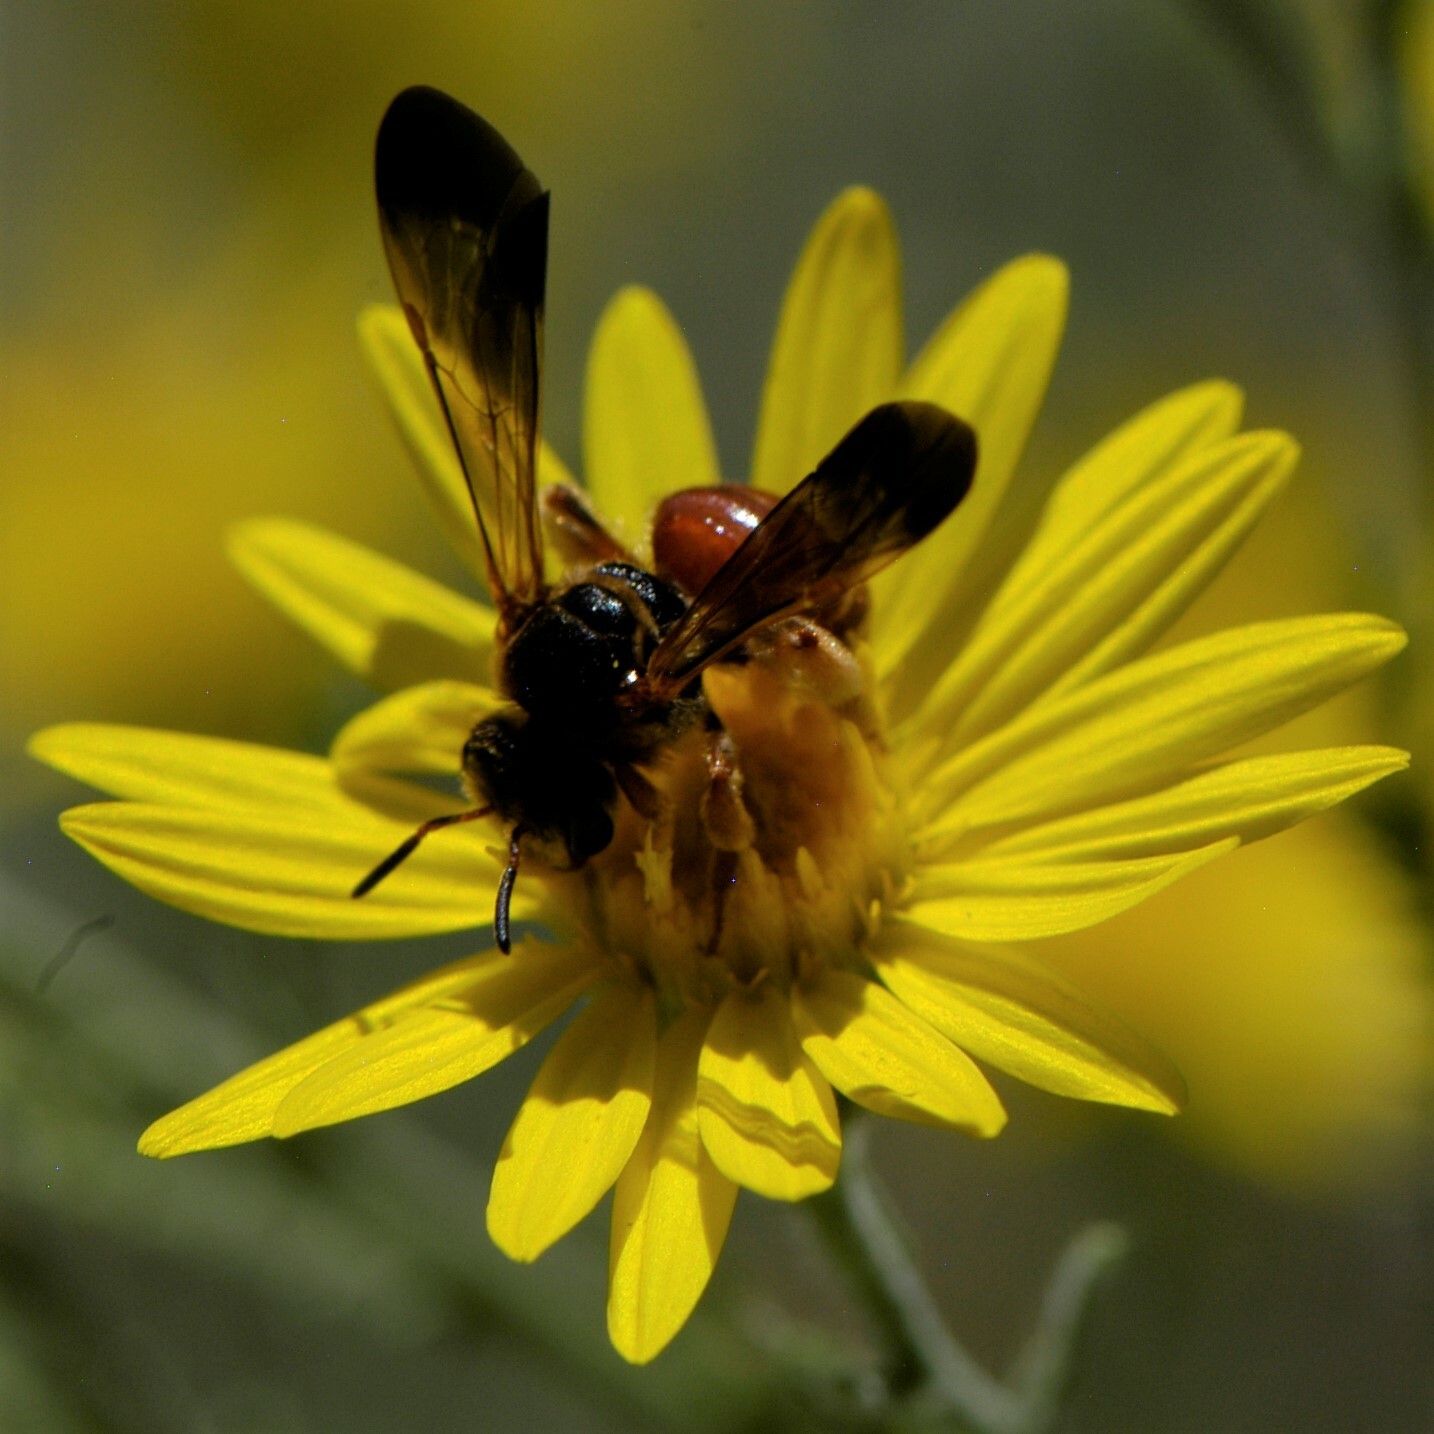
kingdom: Animalia
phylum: Arthropoda
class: Insecta
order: Hymenoptera
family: Halictidae
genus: Dieunomia
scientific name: Dieunomia nevadensis
